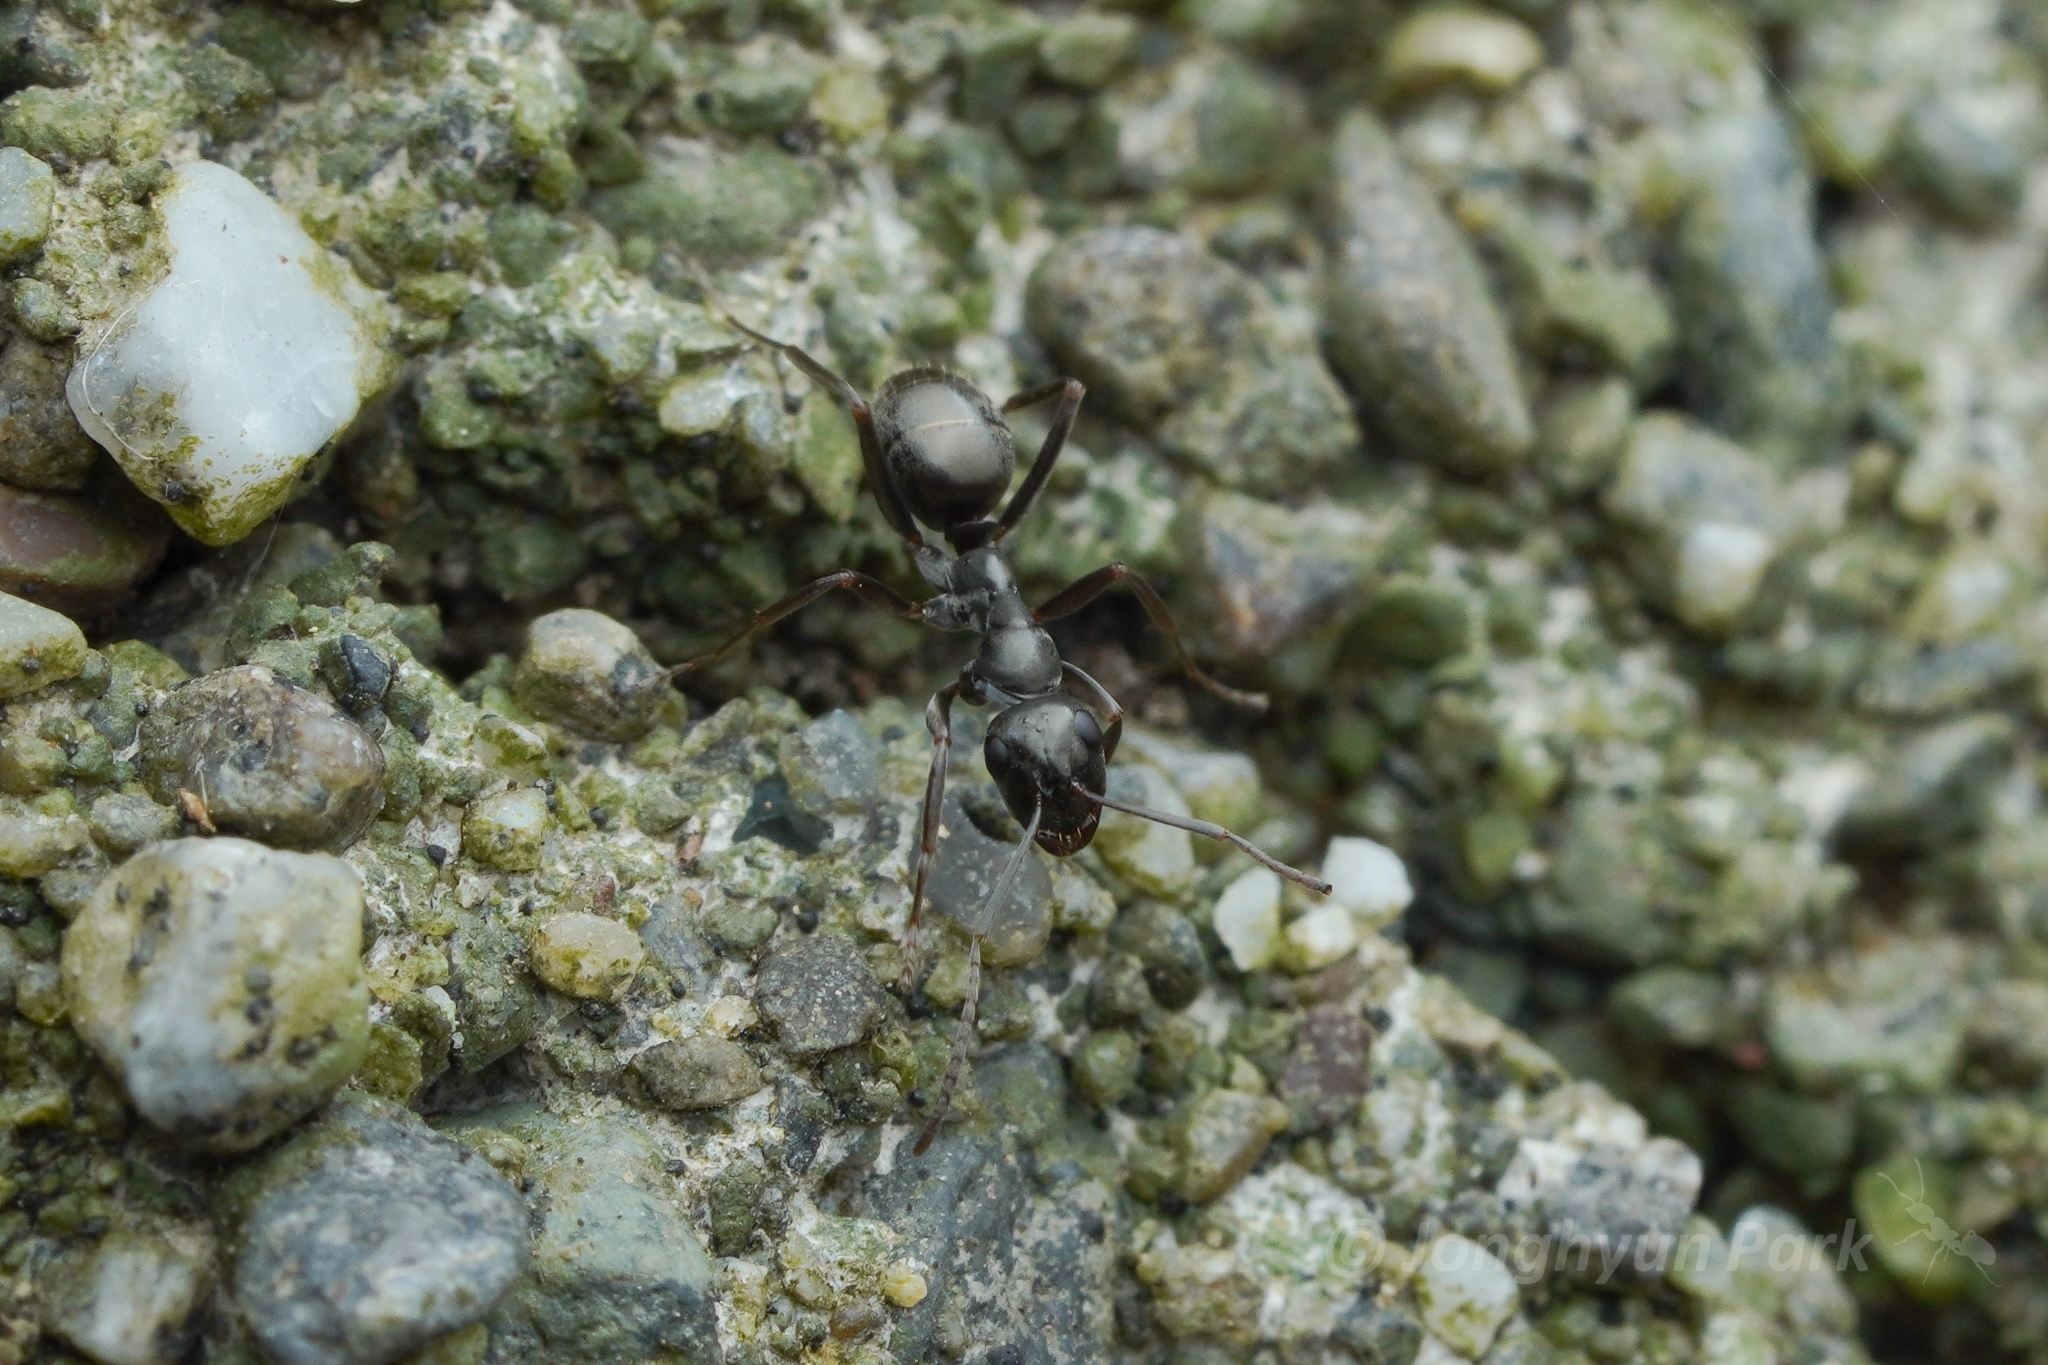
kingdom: Animalia
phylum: Arthropoda
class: Insecta
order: Hymenoptera
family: Formicidae
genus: Formica
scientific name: Formica accreta
